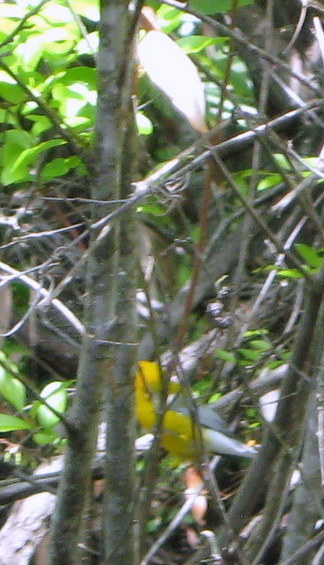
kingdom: Animalia
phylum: Chordata
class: Aves
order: Passeriformes
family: Parulidae
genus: Protonotaria
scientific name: Protonotaria citrea
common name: Prothonotary warbler
